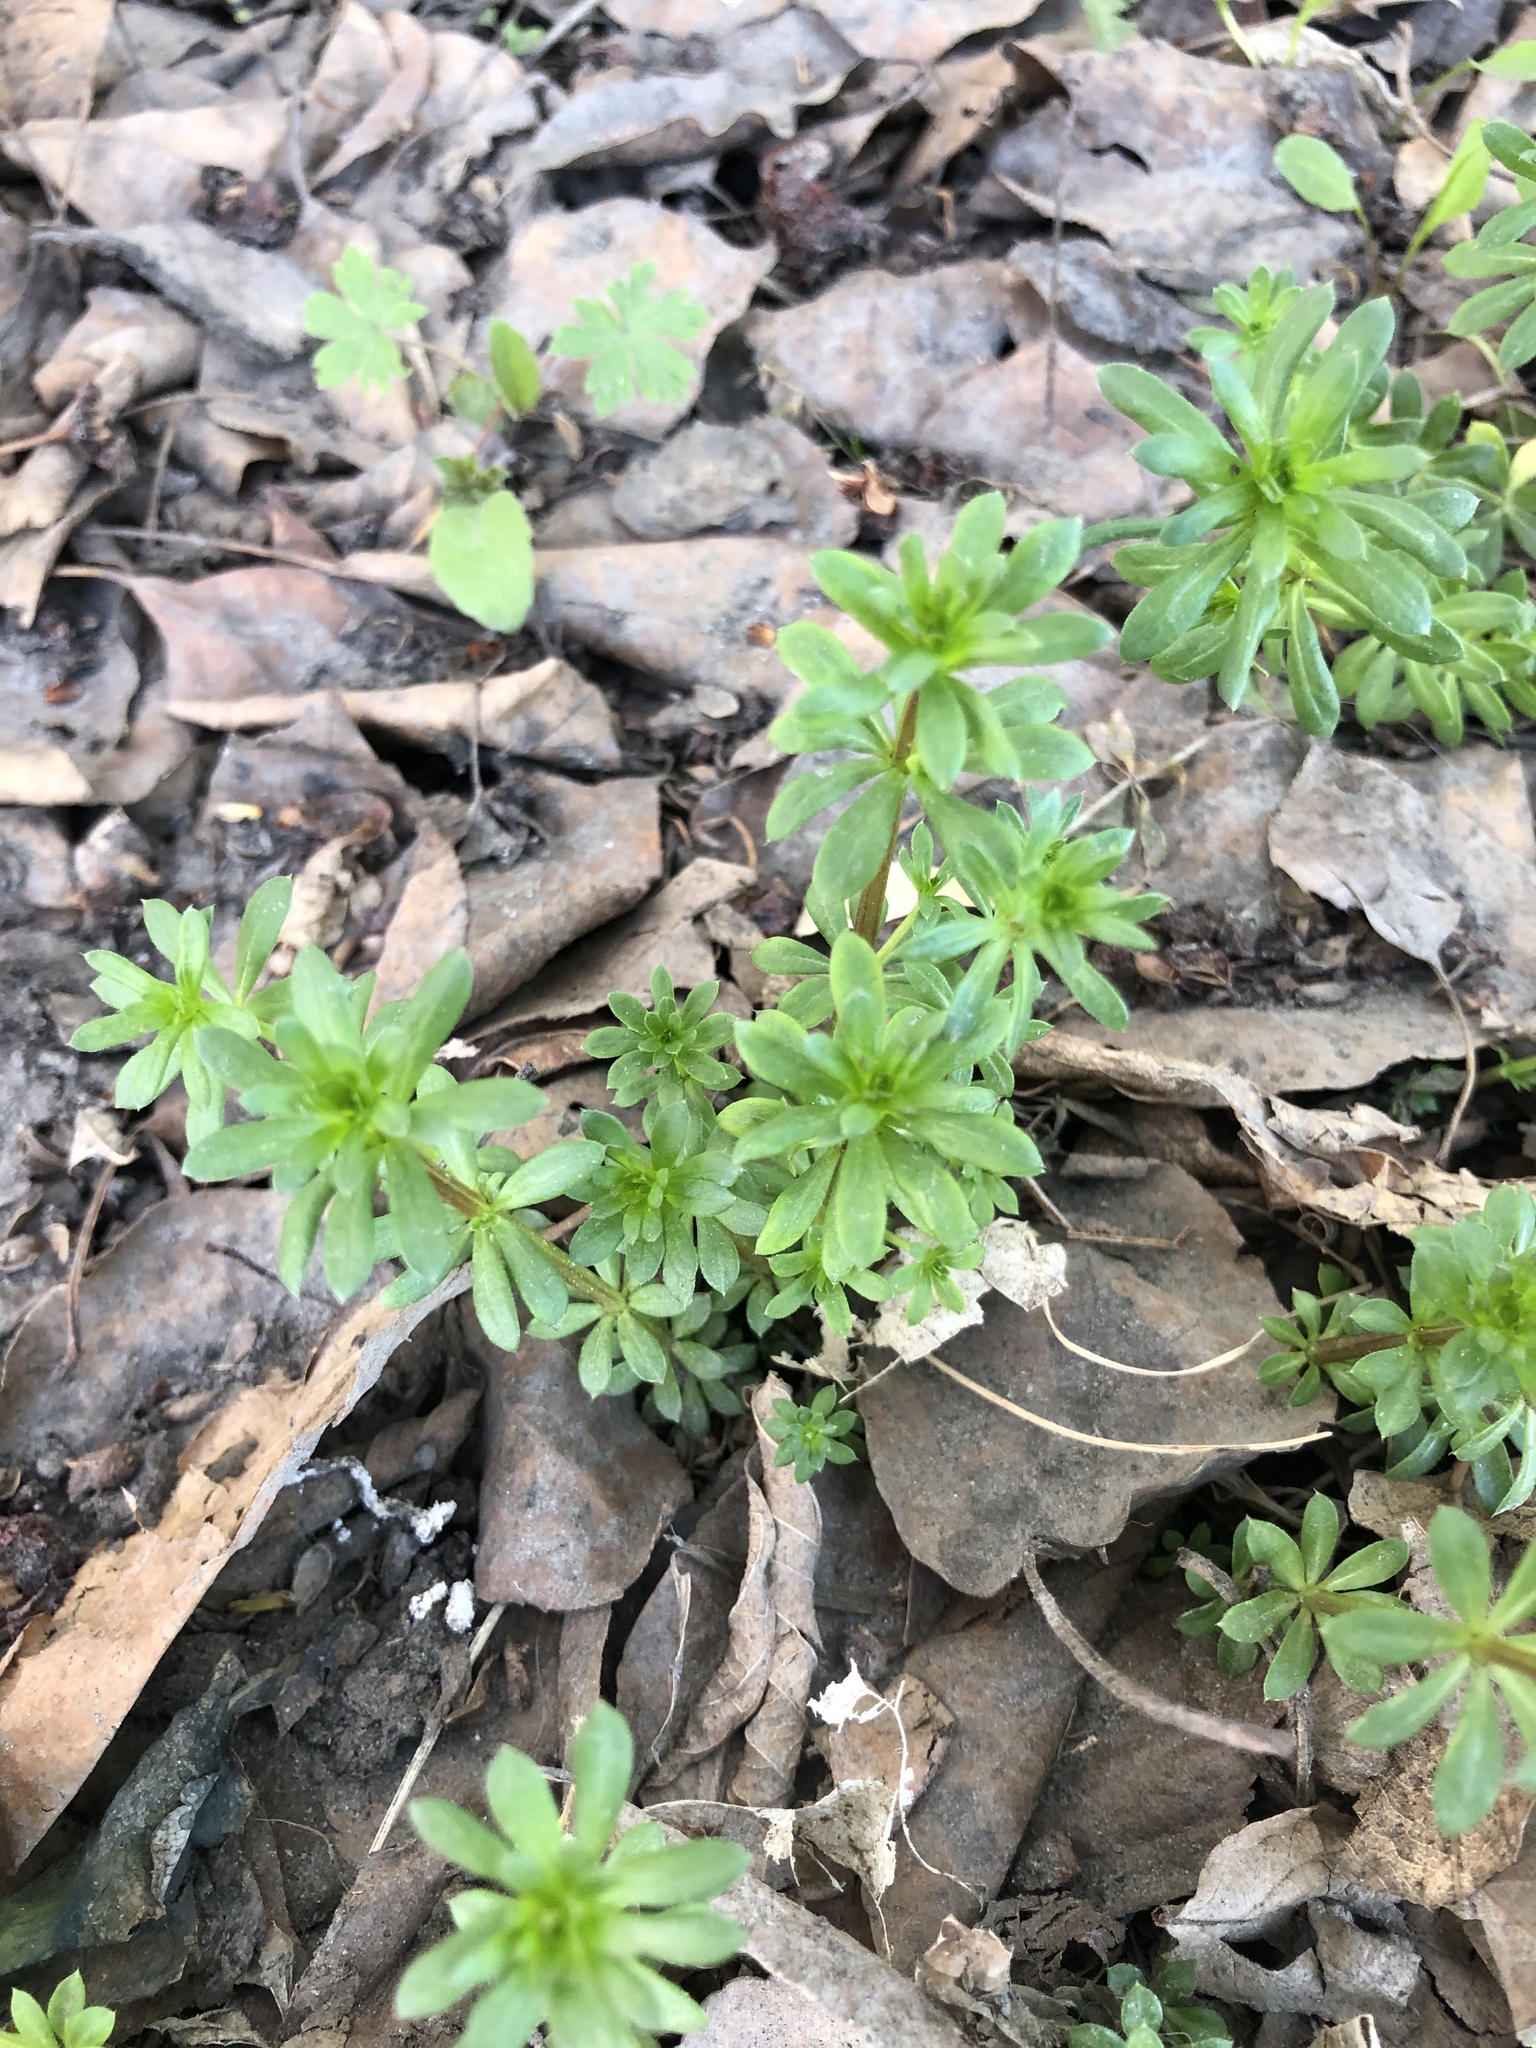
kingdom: Plantae
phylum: Tracheophyta
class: Magnoliopsida
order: Gentianales
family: Rubiaceae
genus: Galium
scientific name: Galium mollugo
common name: Hedge bedstraw
